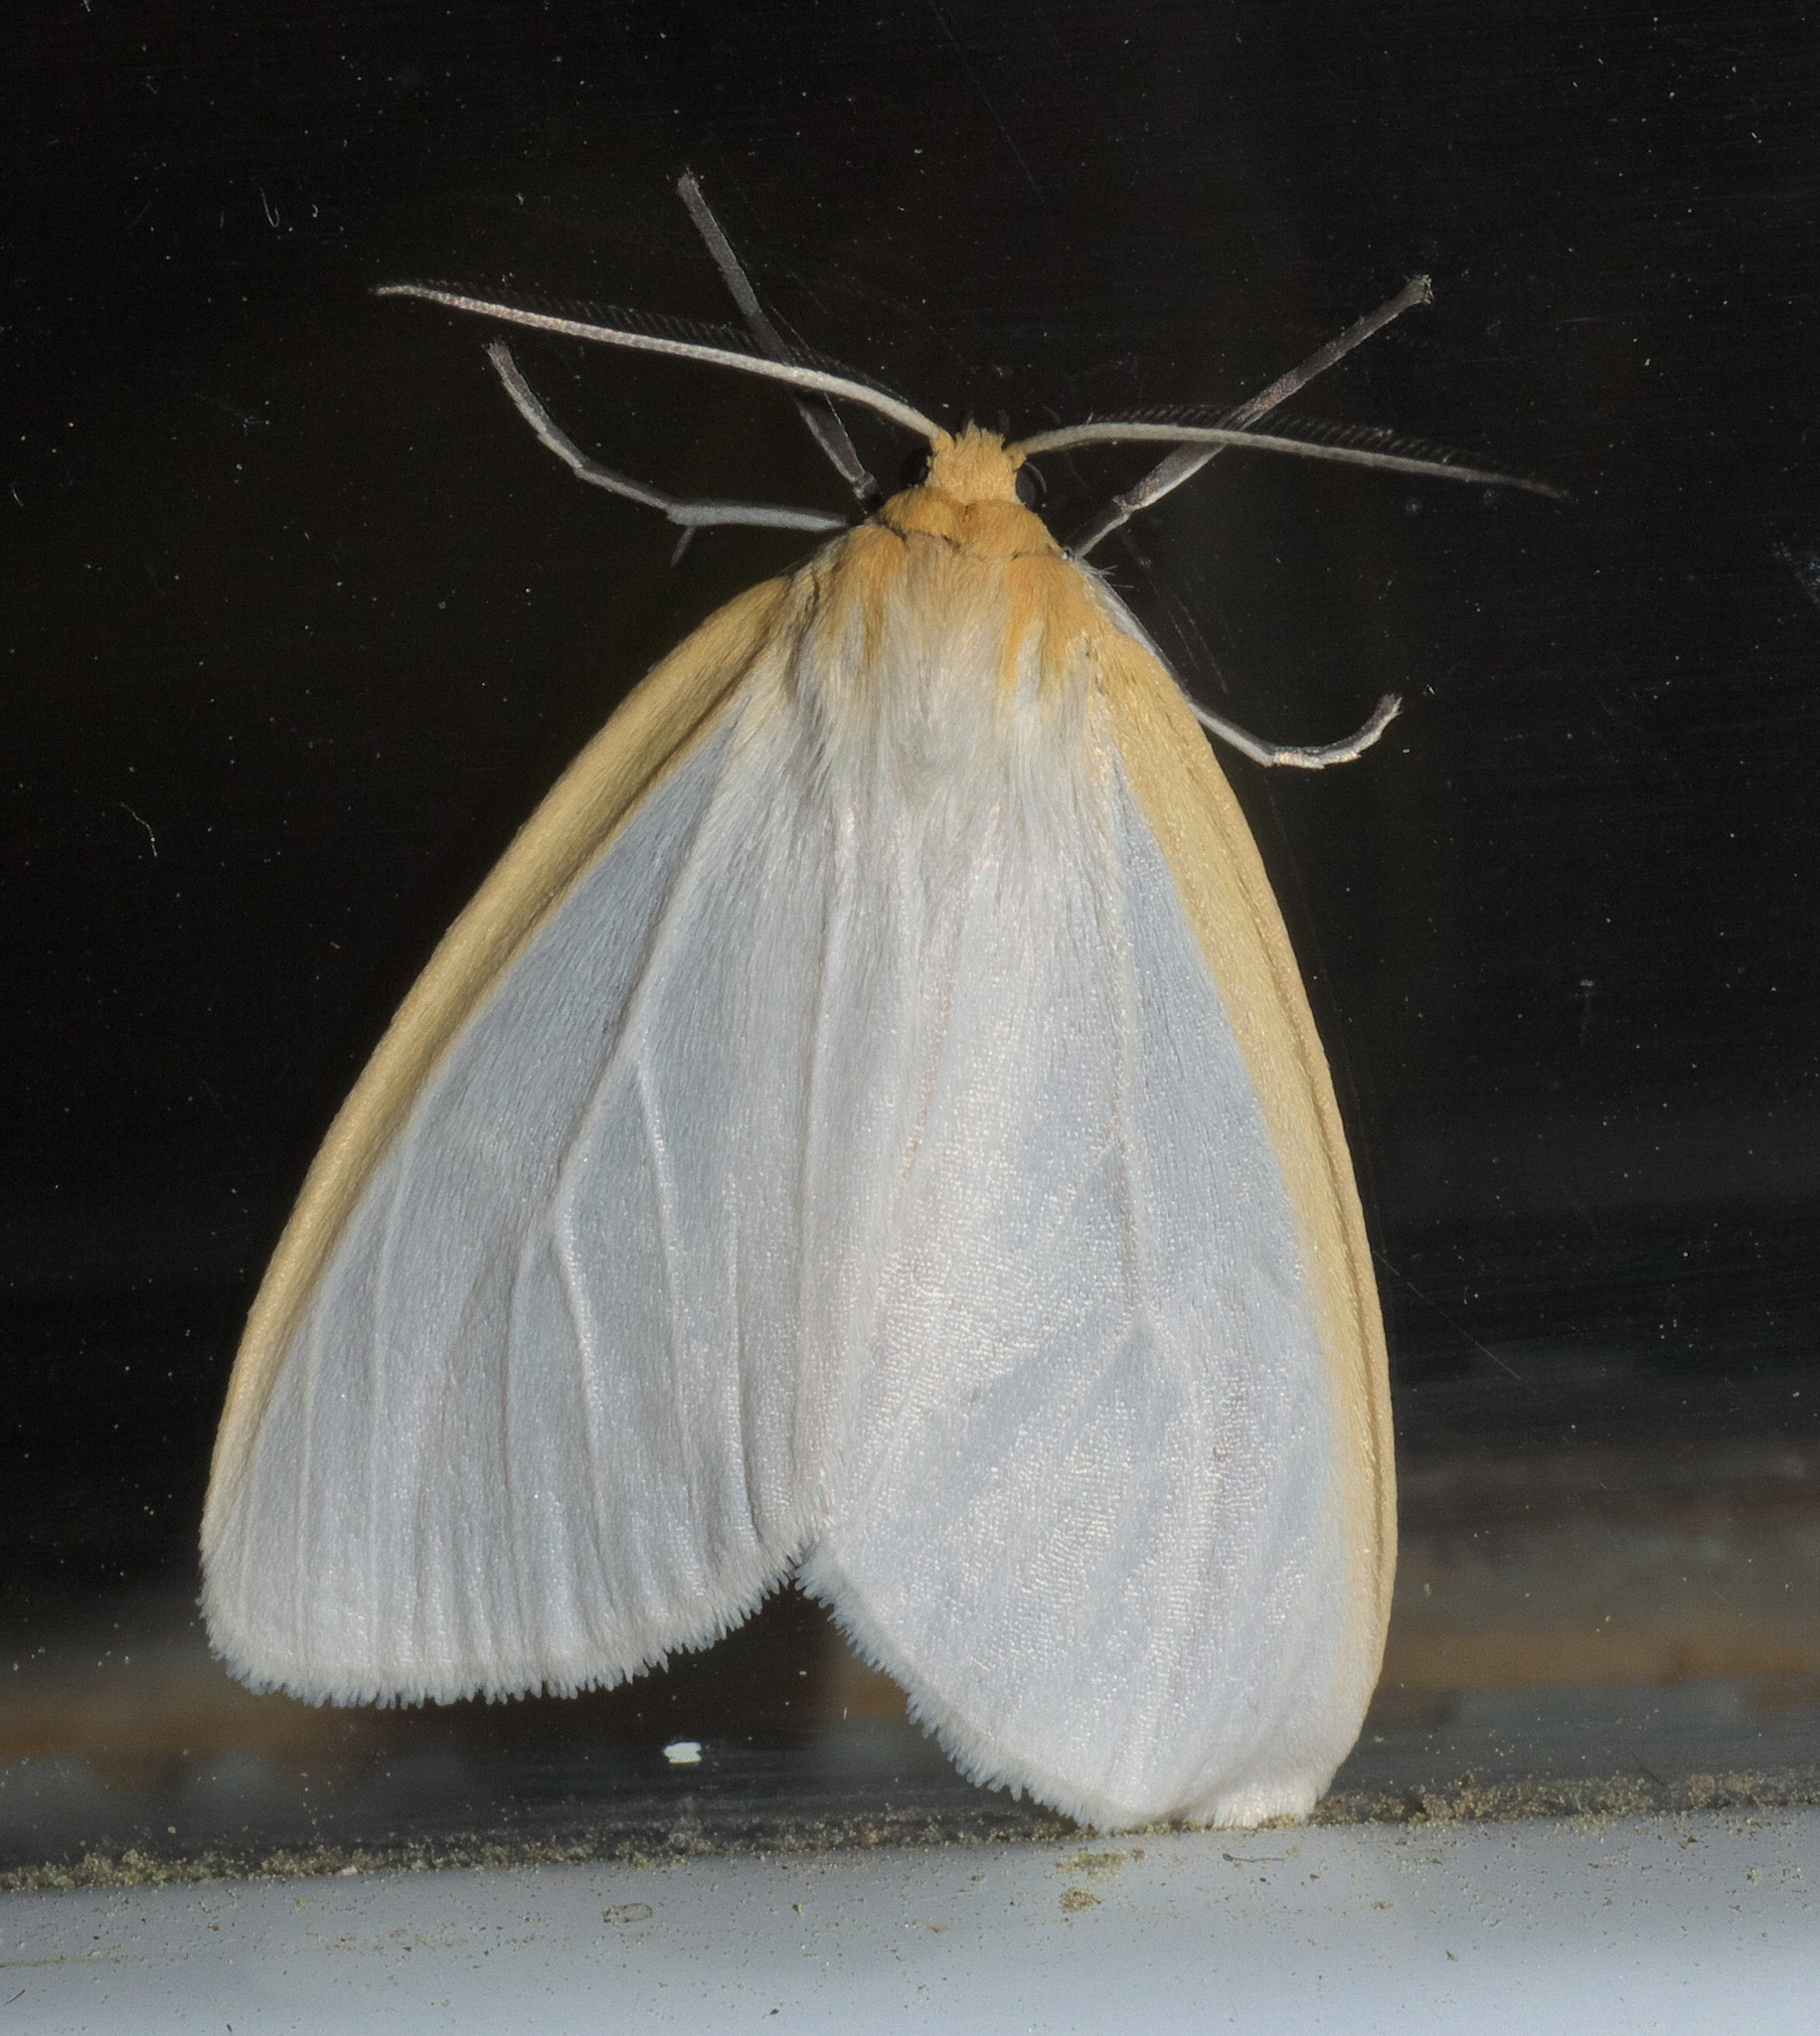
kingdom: Animalia
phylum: Arthropoda
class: Insecta
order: Lepidoptera
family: Erebidae
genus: Cycnia
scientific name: Cycnia tenera
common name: Delicate cycnia moth
